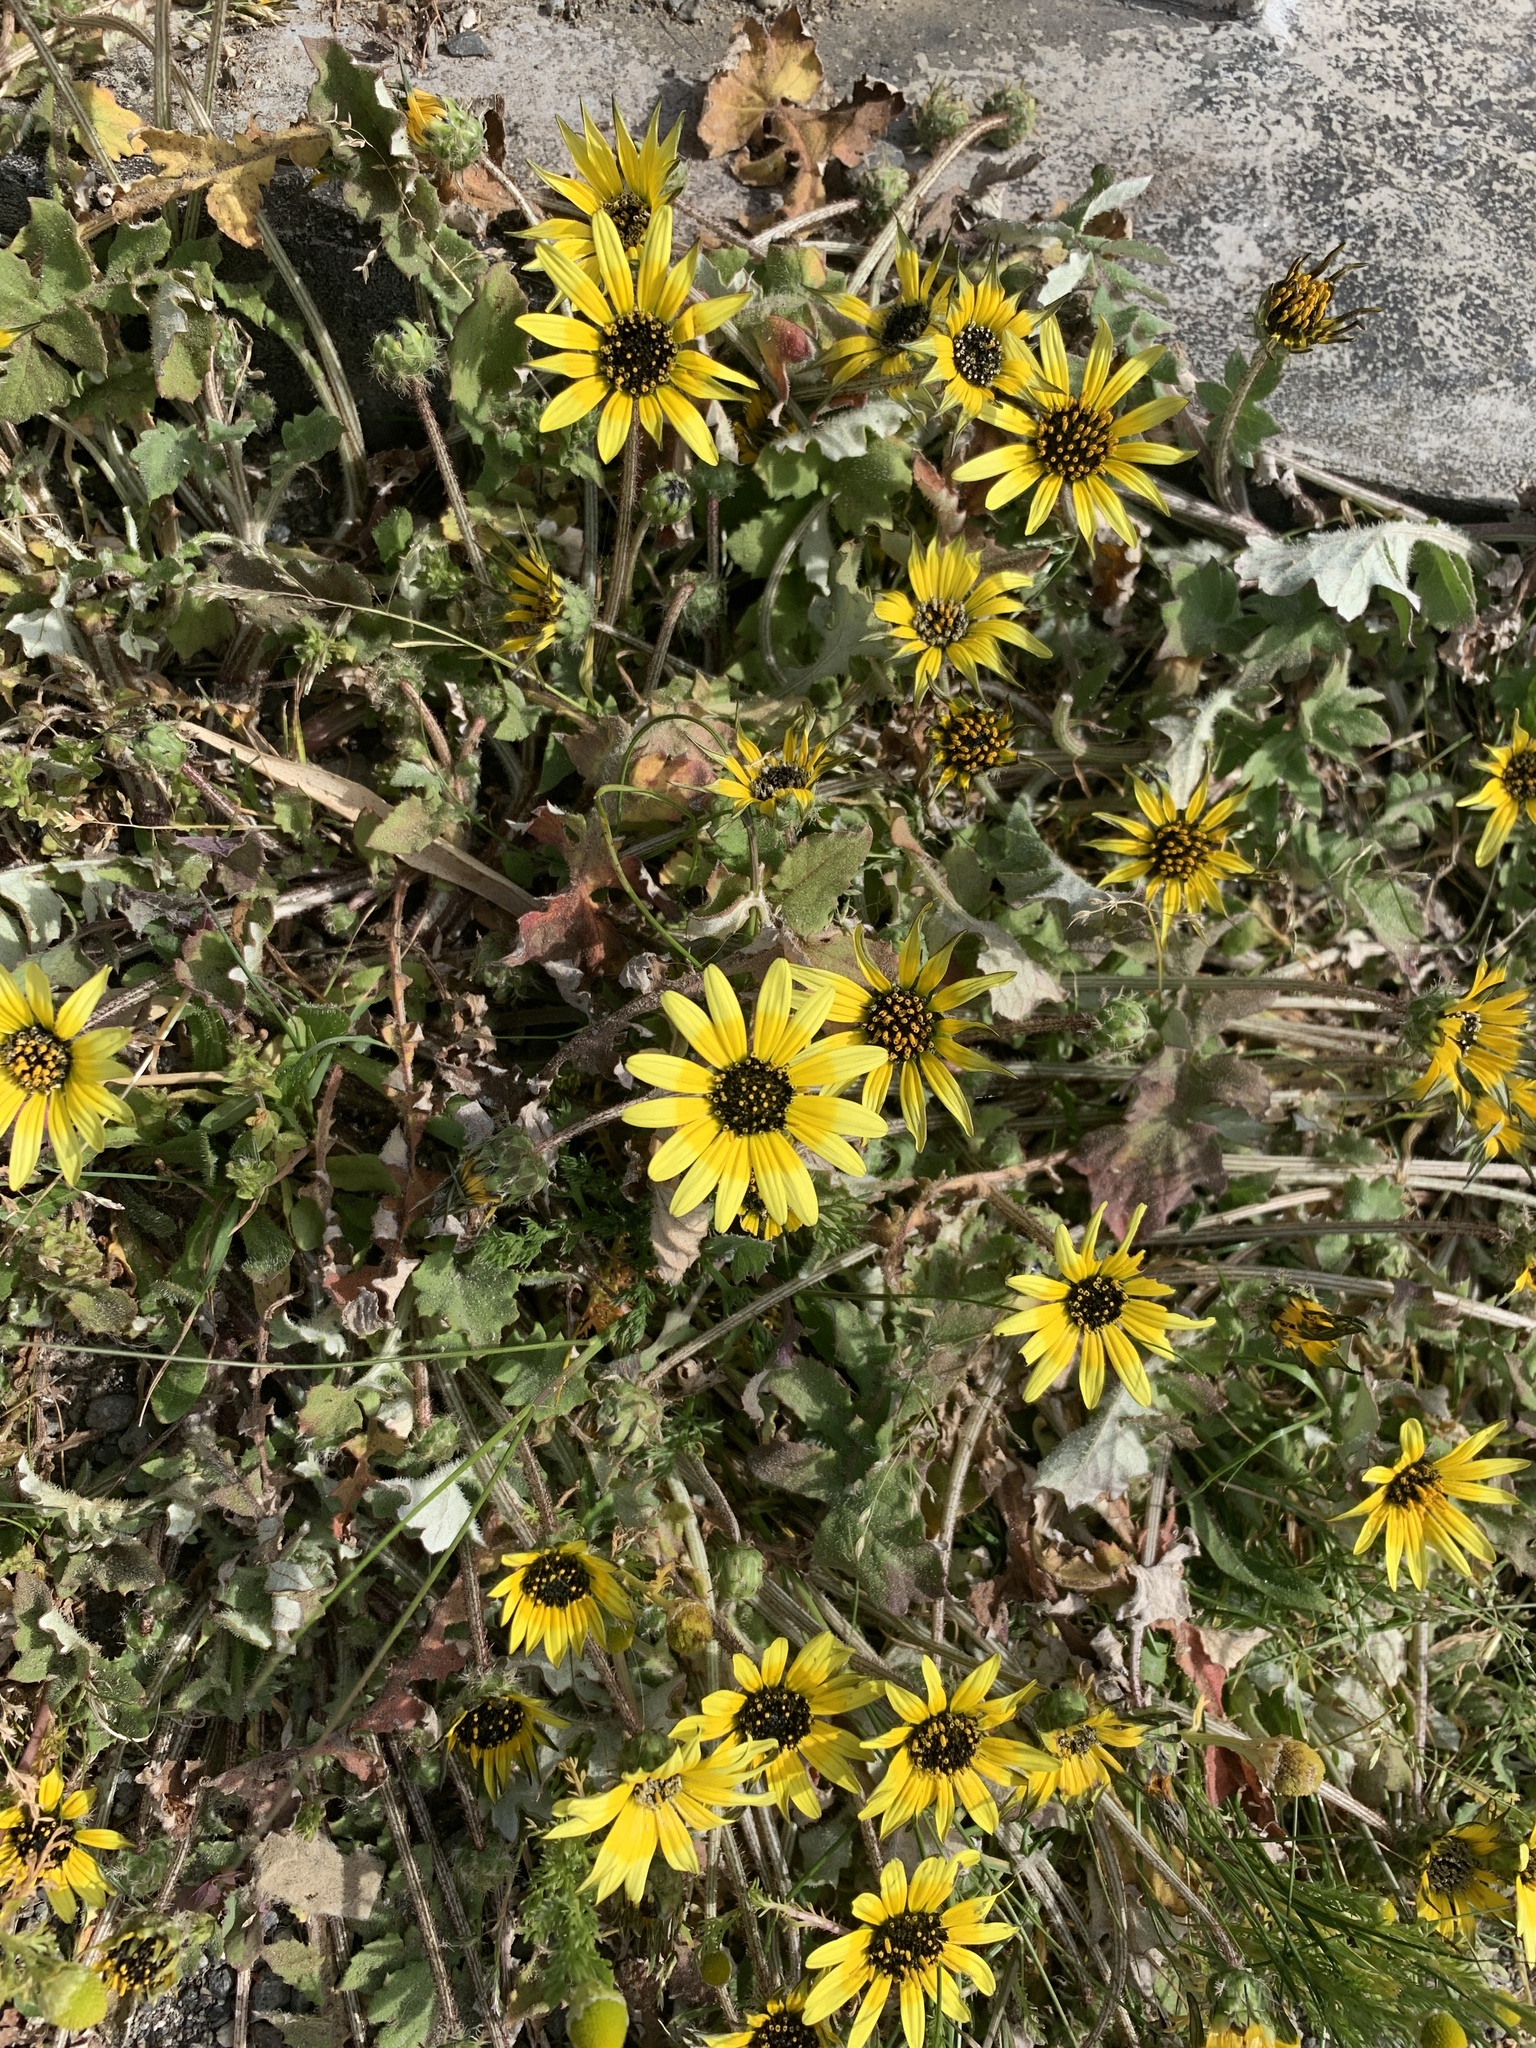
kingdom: Plantae
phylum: Tracheophyta
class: Magnoliopsida
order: Asterales
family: Asteraceae
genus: Arctotheca
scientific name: Arctotheca calendula
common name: Capeweed
